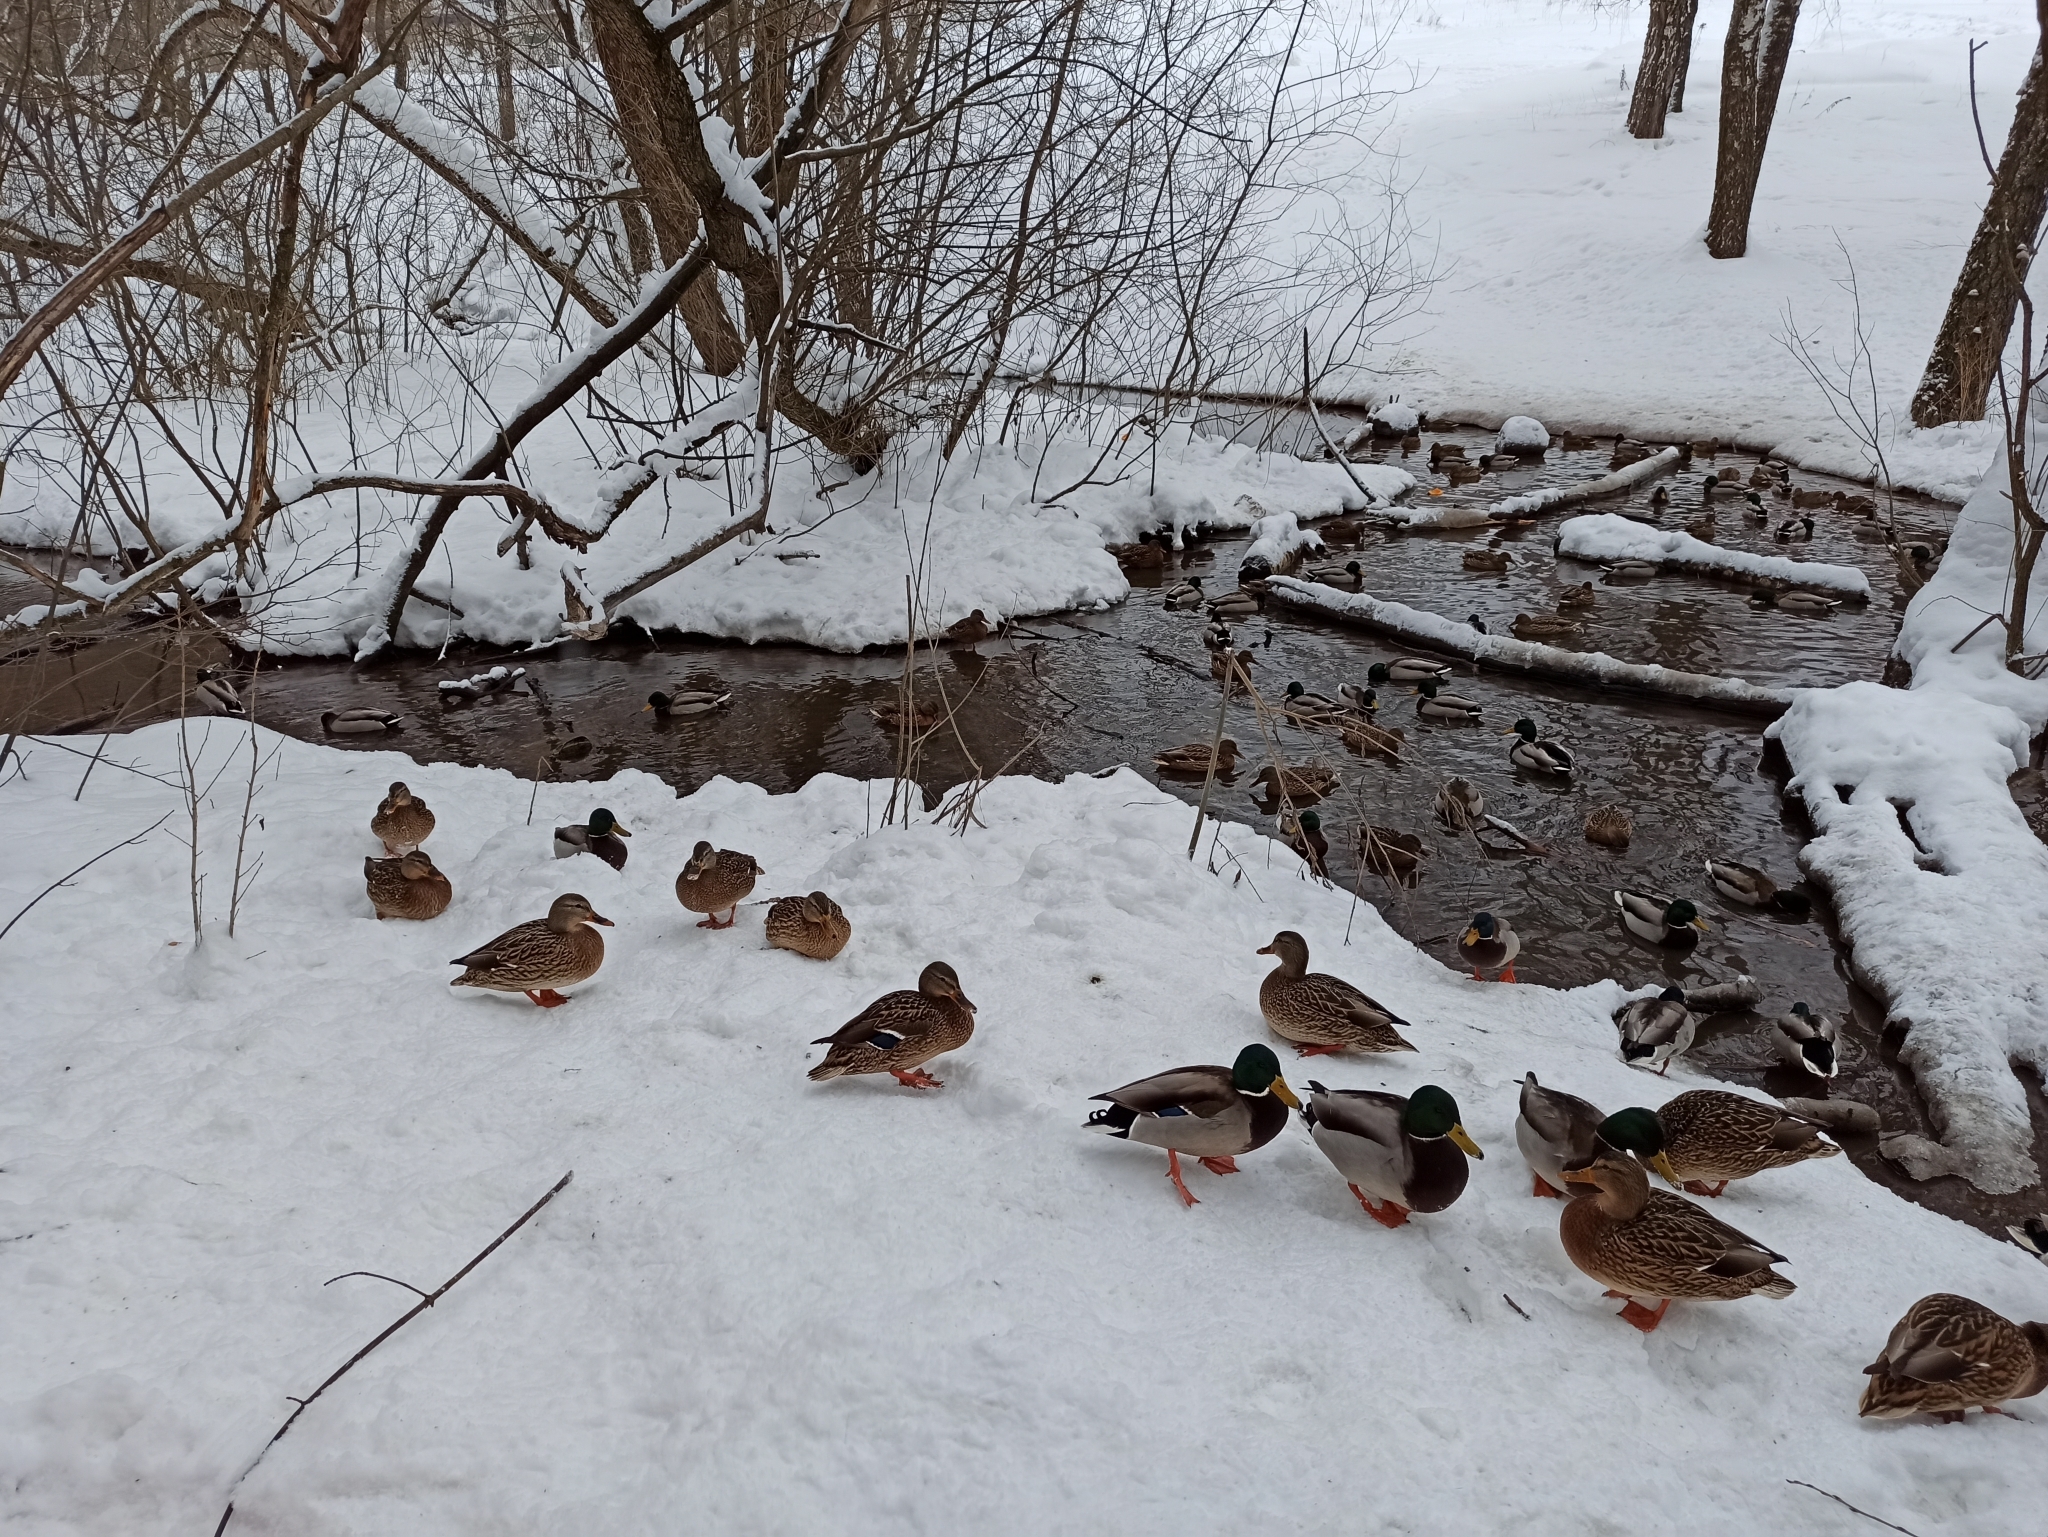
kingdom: Animalia
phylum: Chordata
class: Aves
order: Anseriformes
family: Anatidae
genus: Anas
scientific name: Anas platyrhynchos
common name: Mallard
